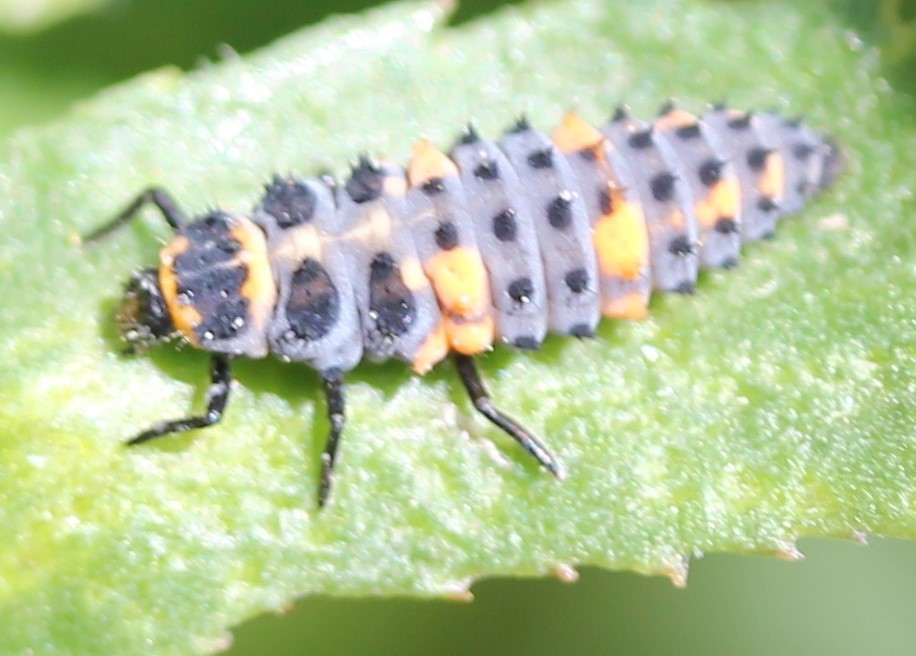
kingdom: Animalia
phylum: Arthropoda
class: Insecta
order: Coleoptera
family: Coccinellidae
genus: Coccinella
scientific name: Coccinella septempunctata
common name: Sevenspotted lady beetle
